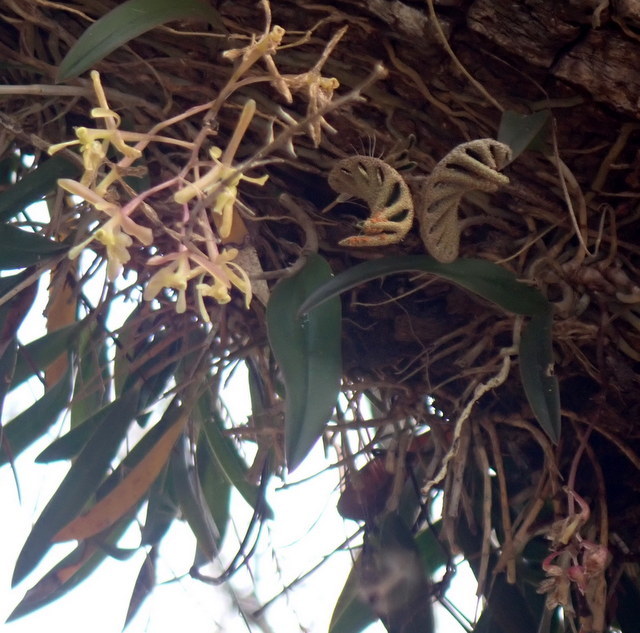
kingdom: Plantae
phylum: Tracheophyta
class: Liliopsida
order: Asparagales
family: Orchidaceae
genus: Epidendrum
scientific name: Epidendrum conopseum
